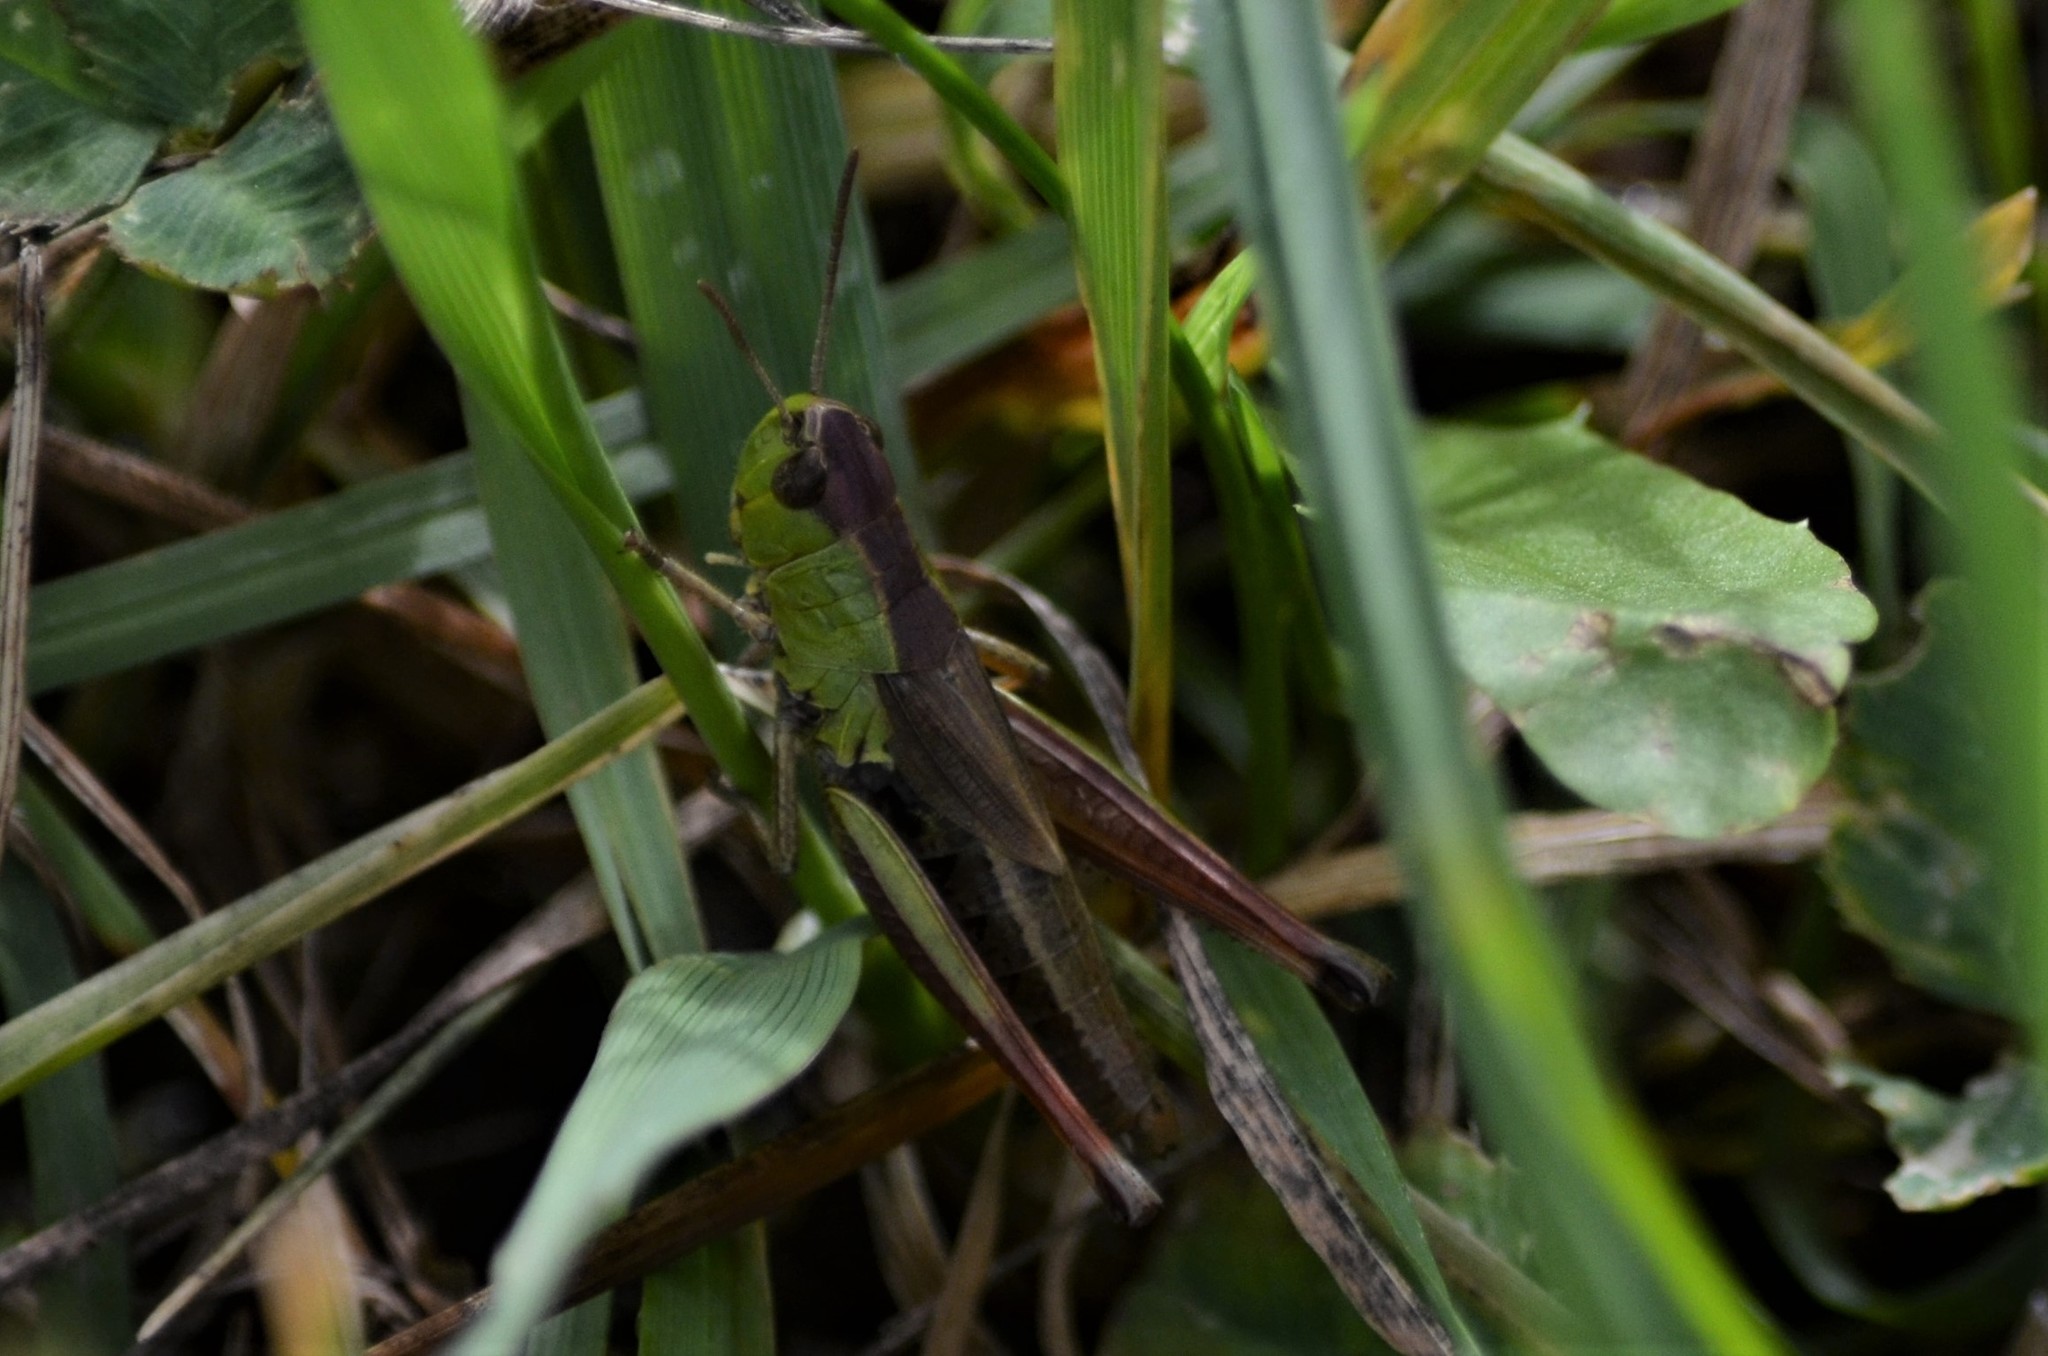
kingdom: Animalia
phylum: Arthropoda
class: Insecta
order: Orthoptera
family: Acrididae
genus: Pseudochorthippus
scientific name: Pseudochorthippus parallelus
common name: Meadow grasshopper
